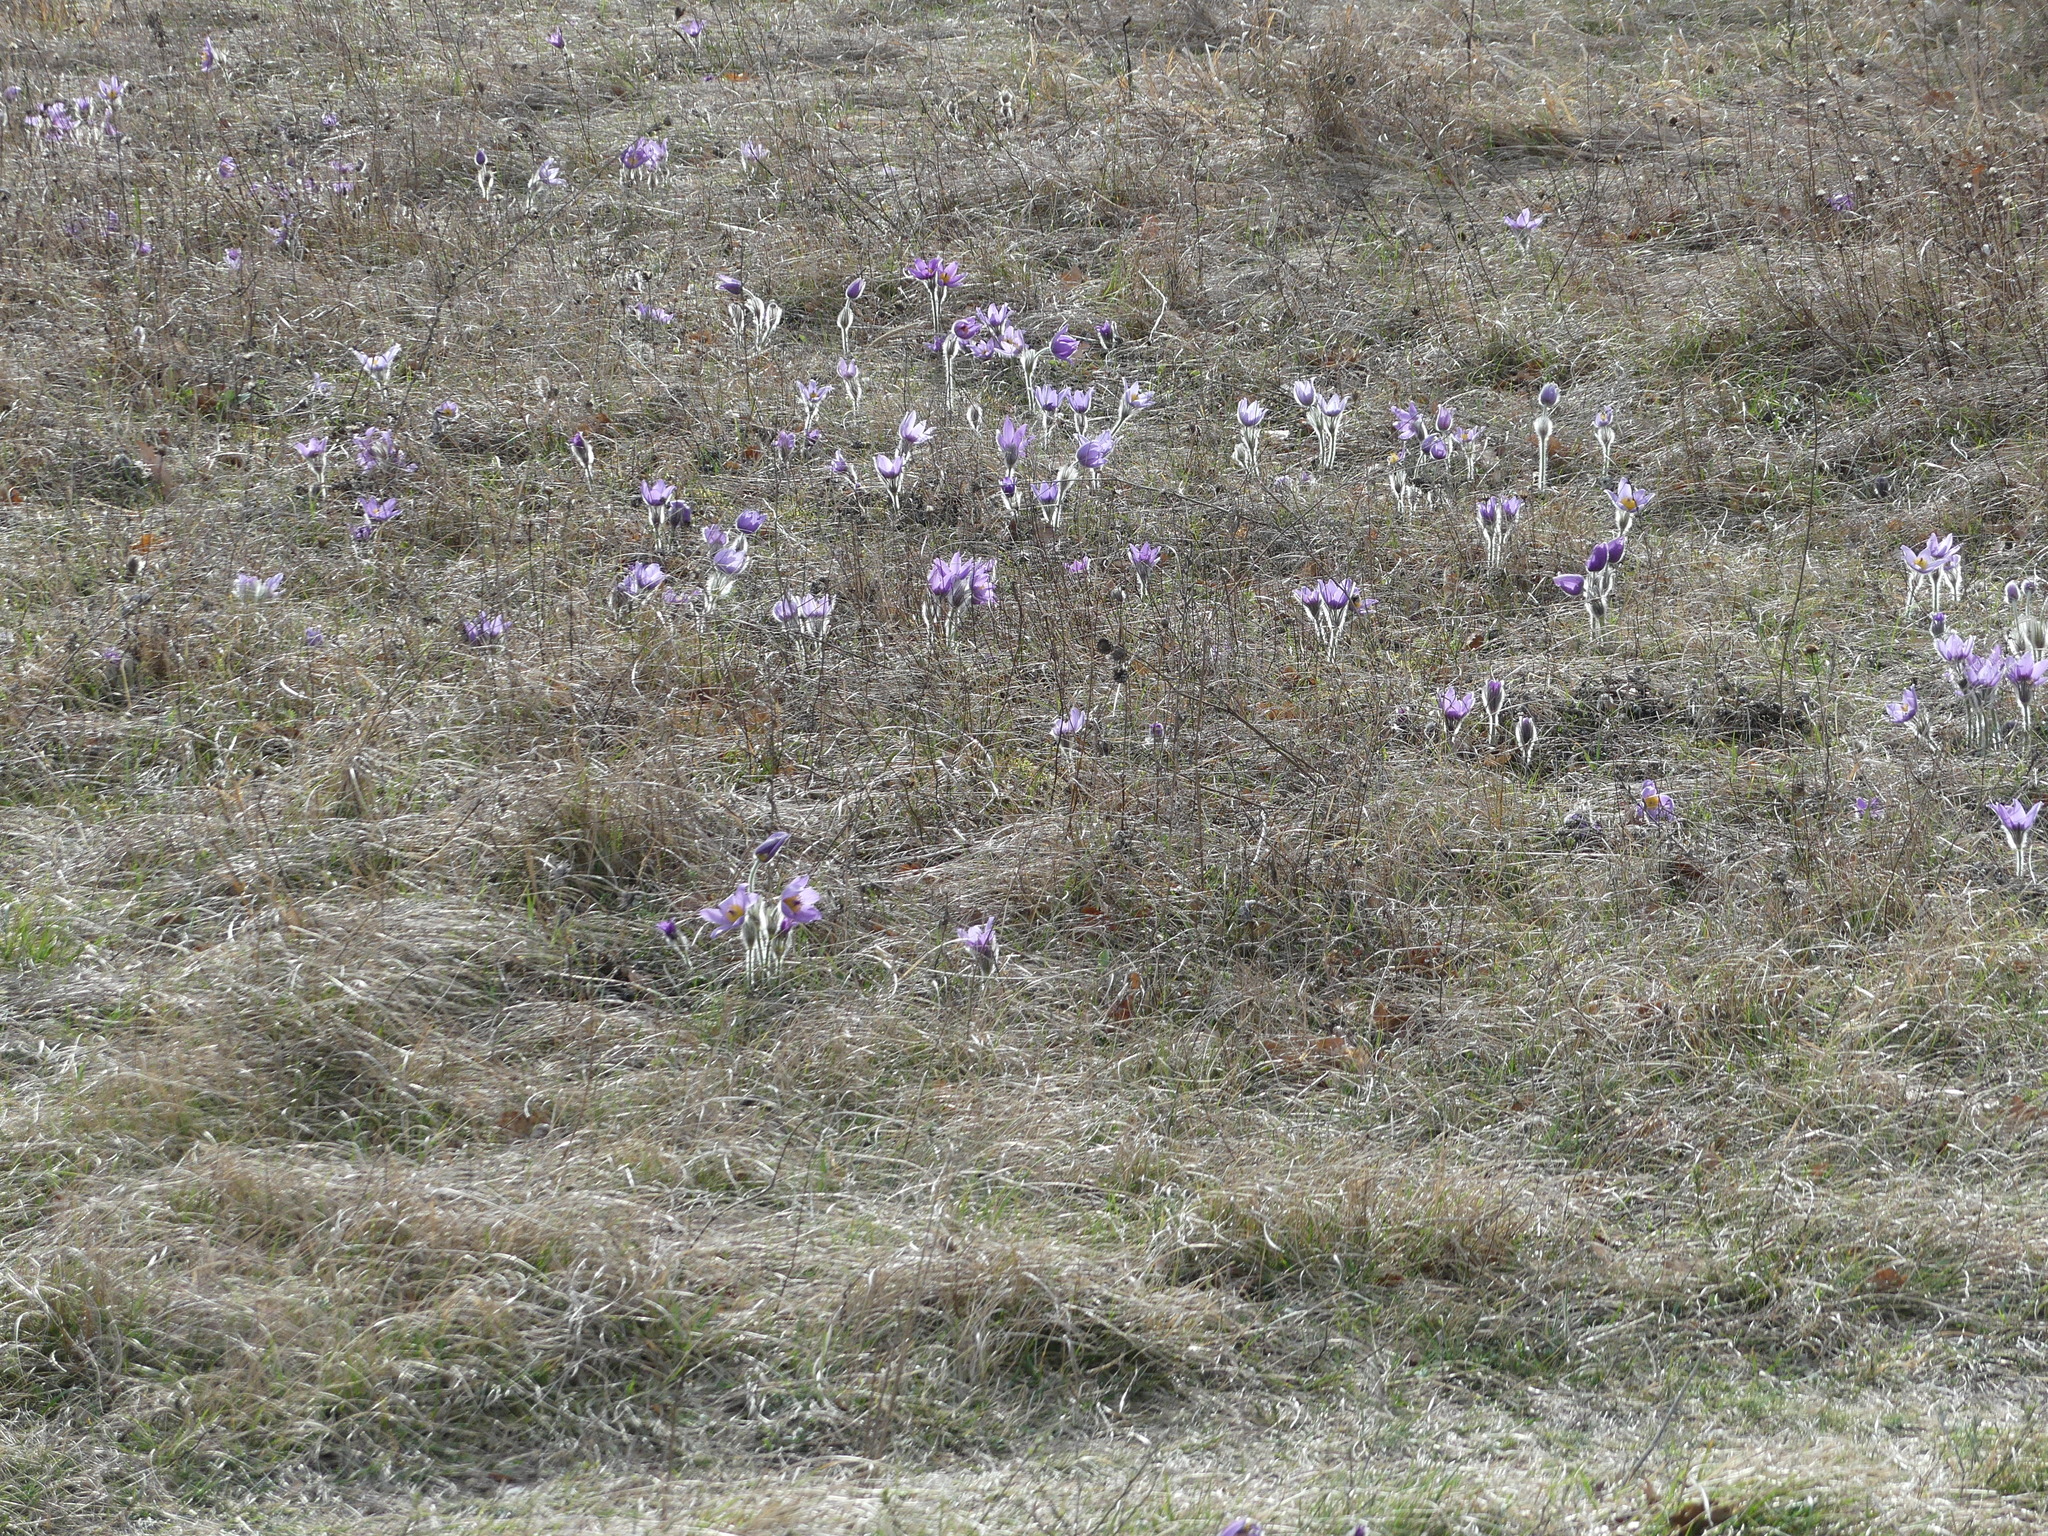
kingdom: Plantae
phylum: Tracheophyta
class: Magnoliopsida
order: Ranunculales
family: Ranunculaceae
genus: Pulsatilla
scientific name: Pulsatilla grandis
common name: Greater pasque flower
